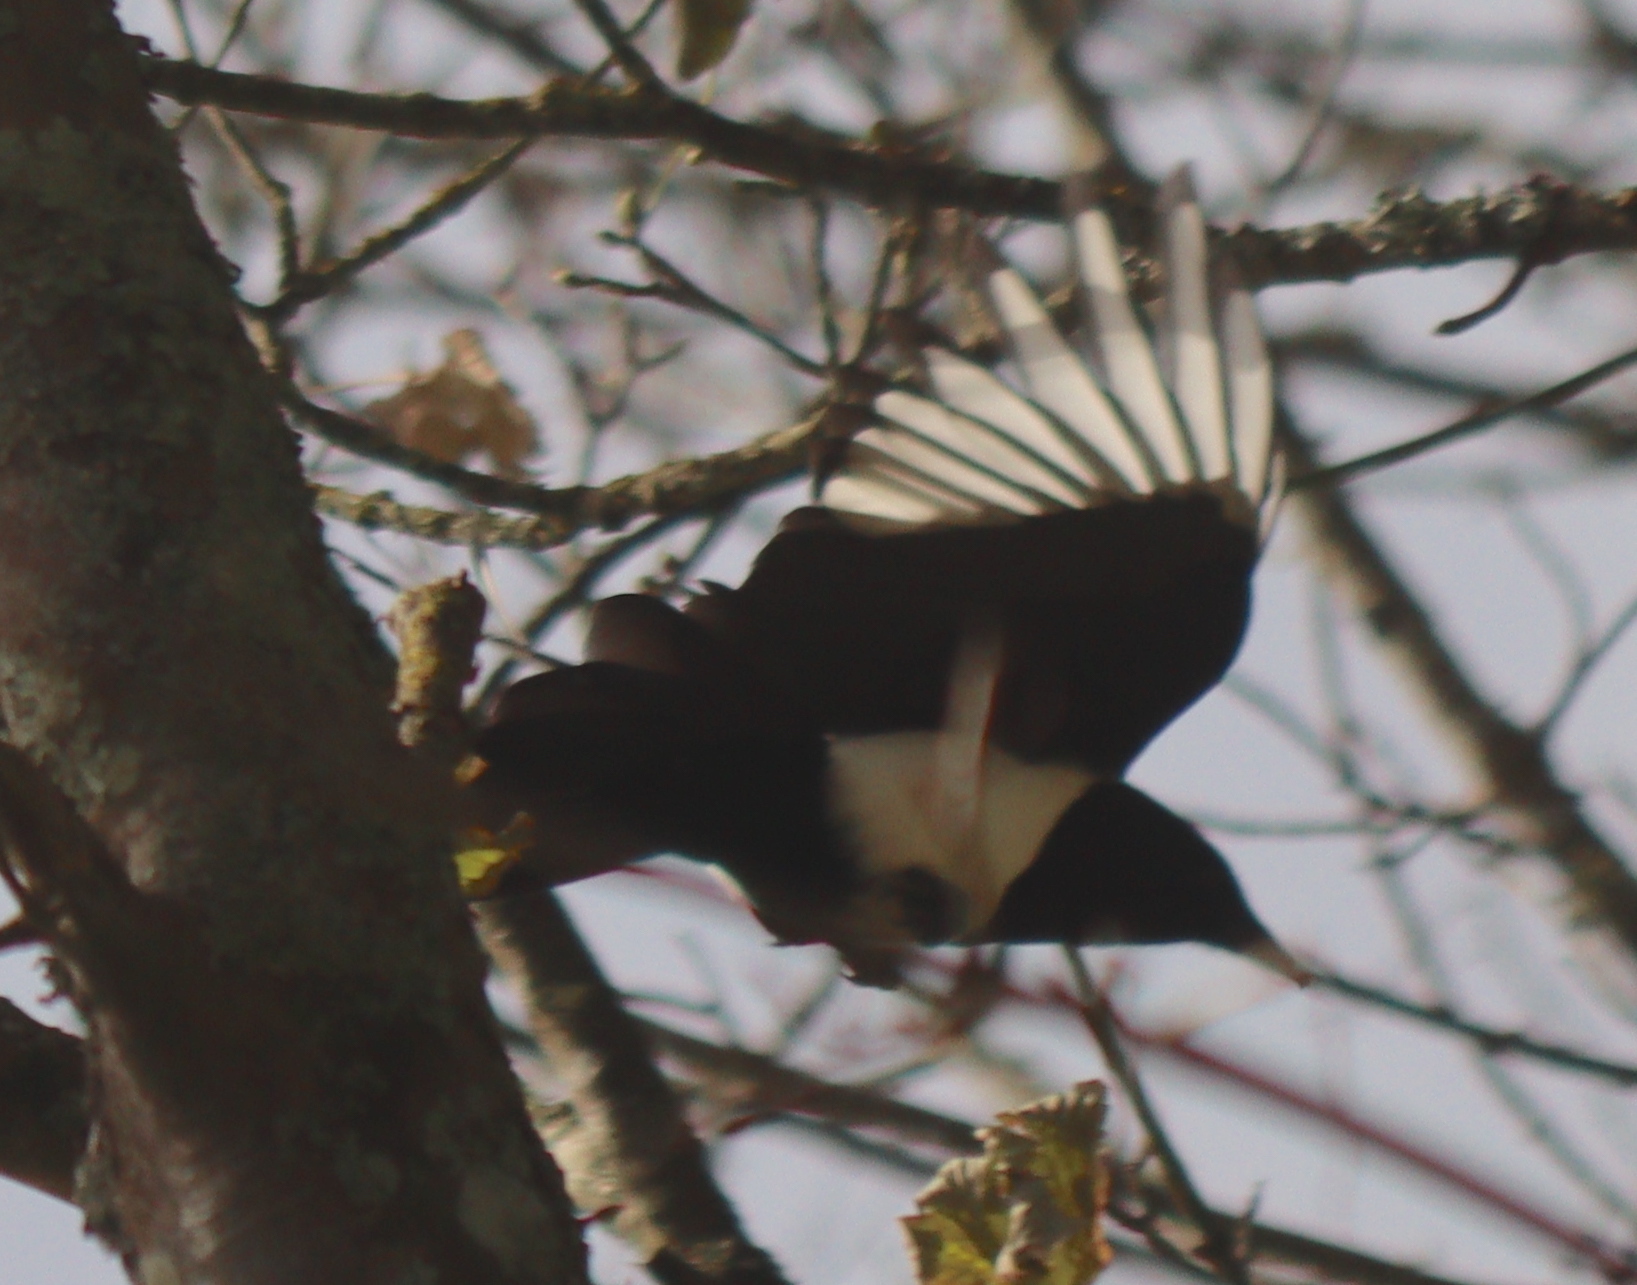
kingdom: Animalia
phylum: Chordata
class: Aves
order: Passeriformes
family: Corvidae
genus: Pica
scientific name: Pica pica
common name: Eurasian magpie
